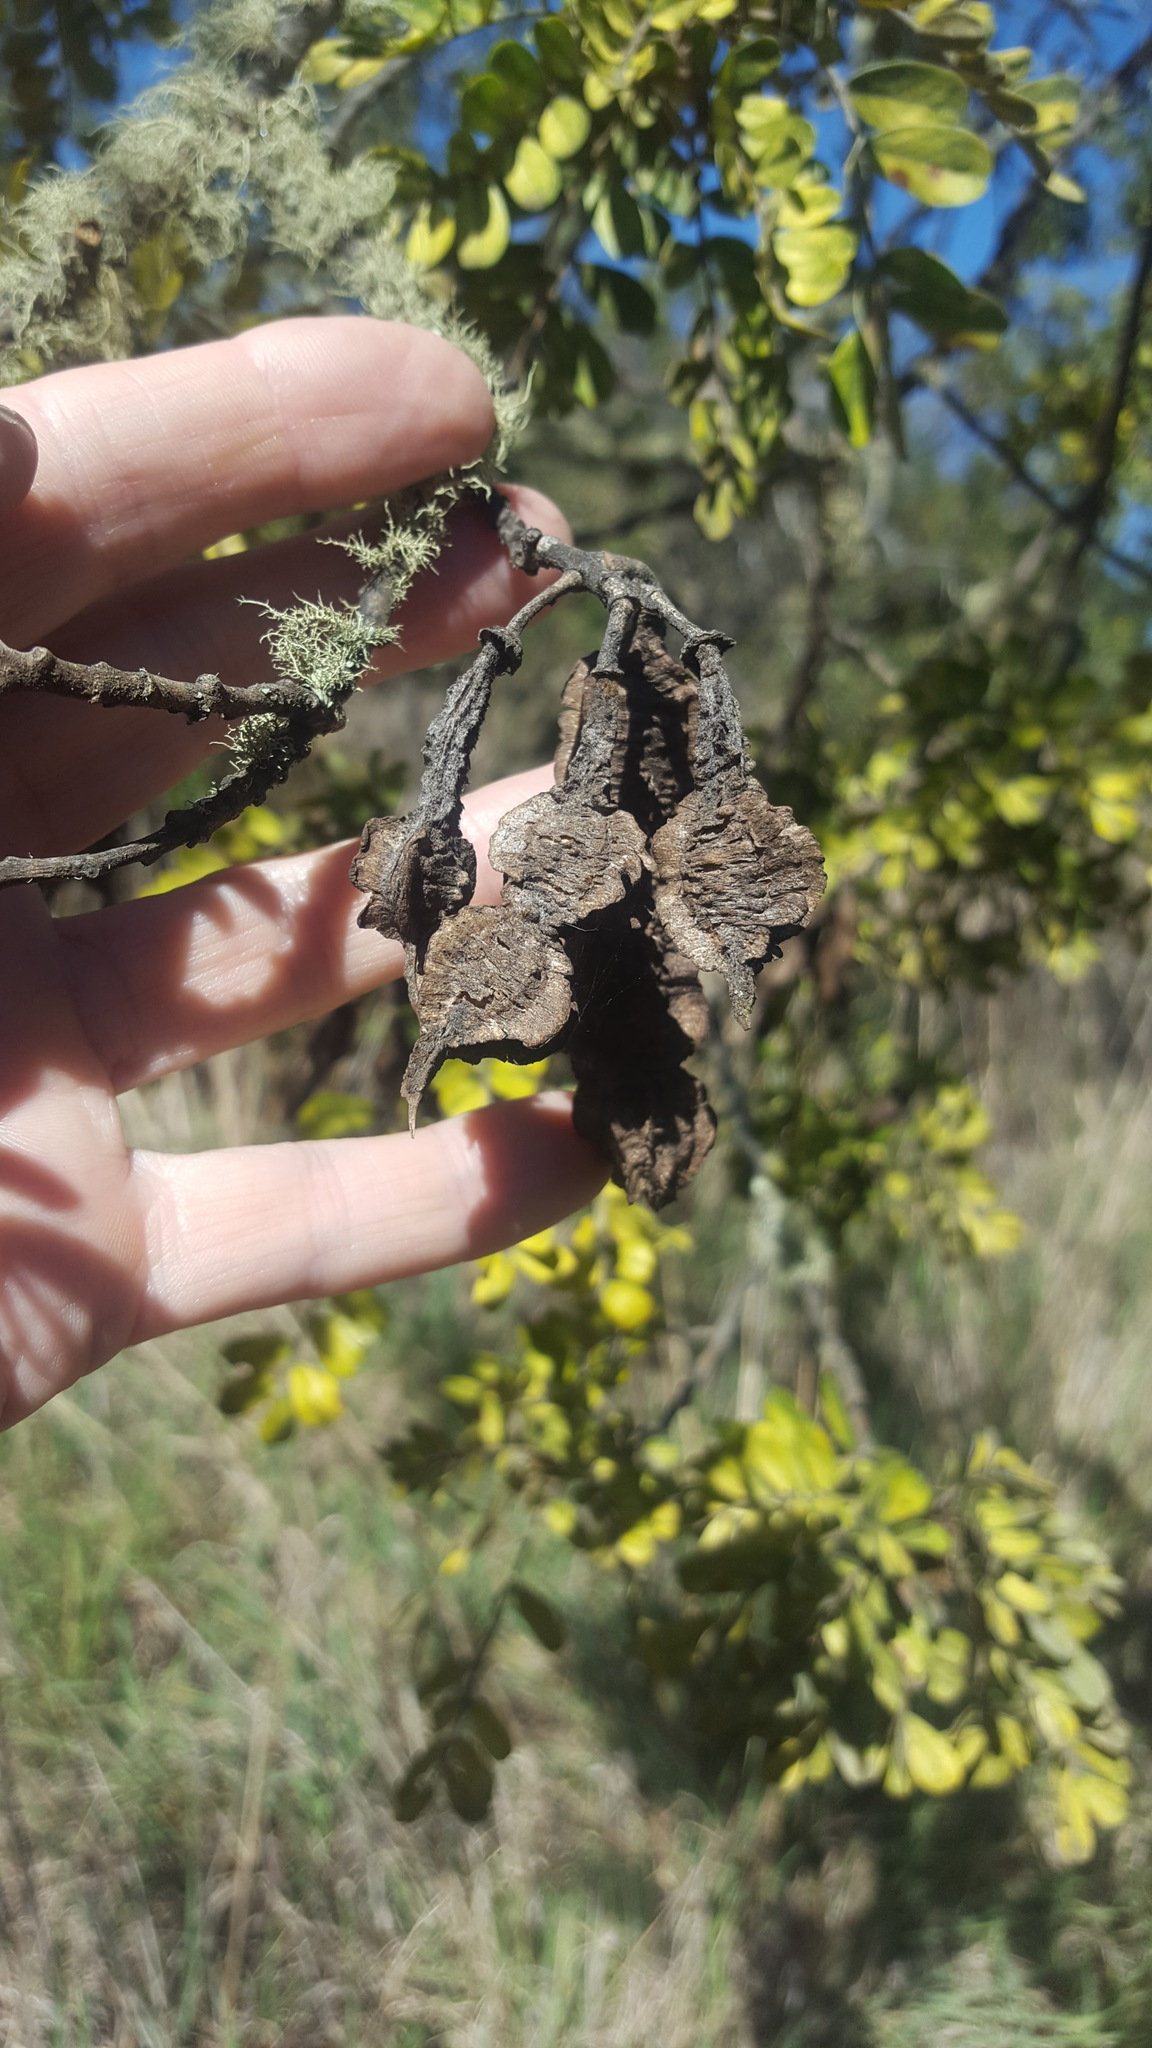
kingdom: Plantae
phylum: Tracheophyta
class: Magnoliopsida
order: Fabales
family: Fabaceae
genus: Sophora
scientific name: Sophora chrysophylla
